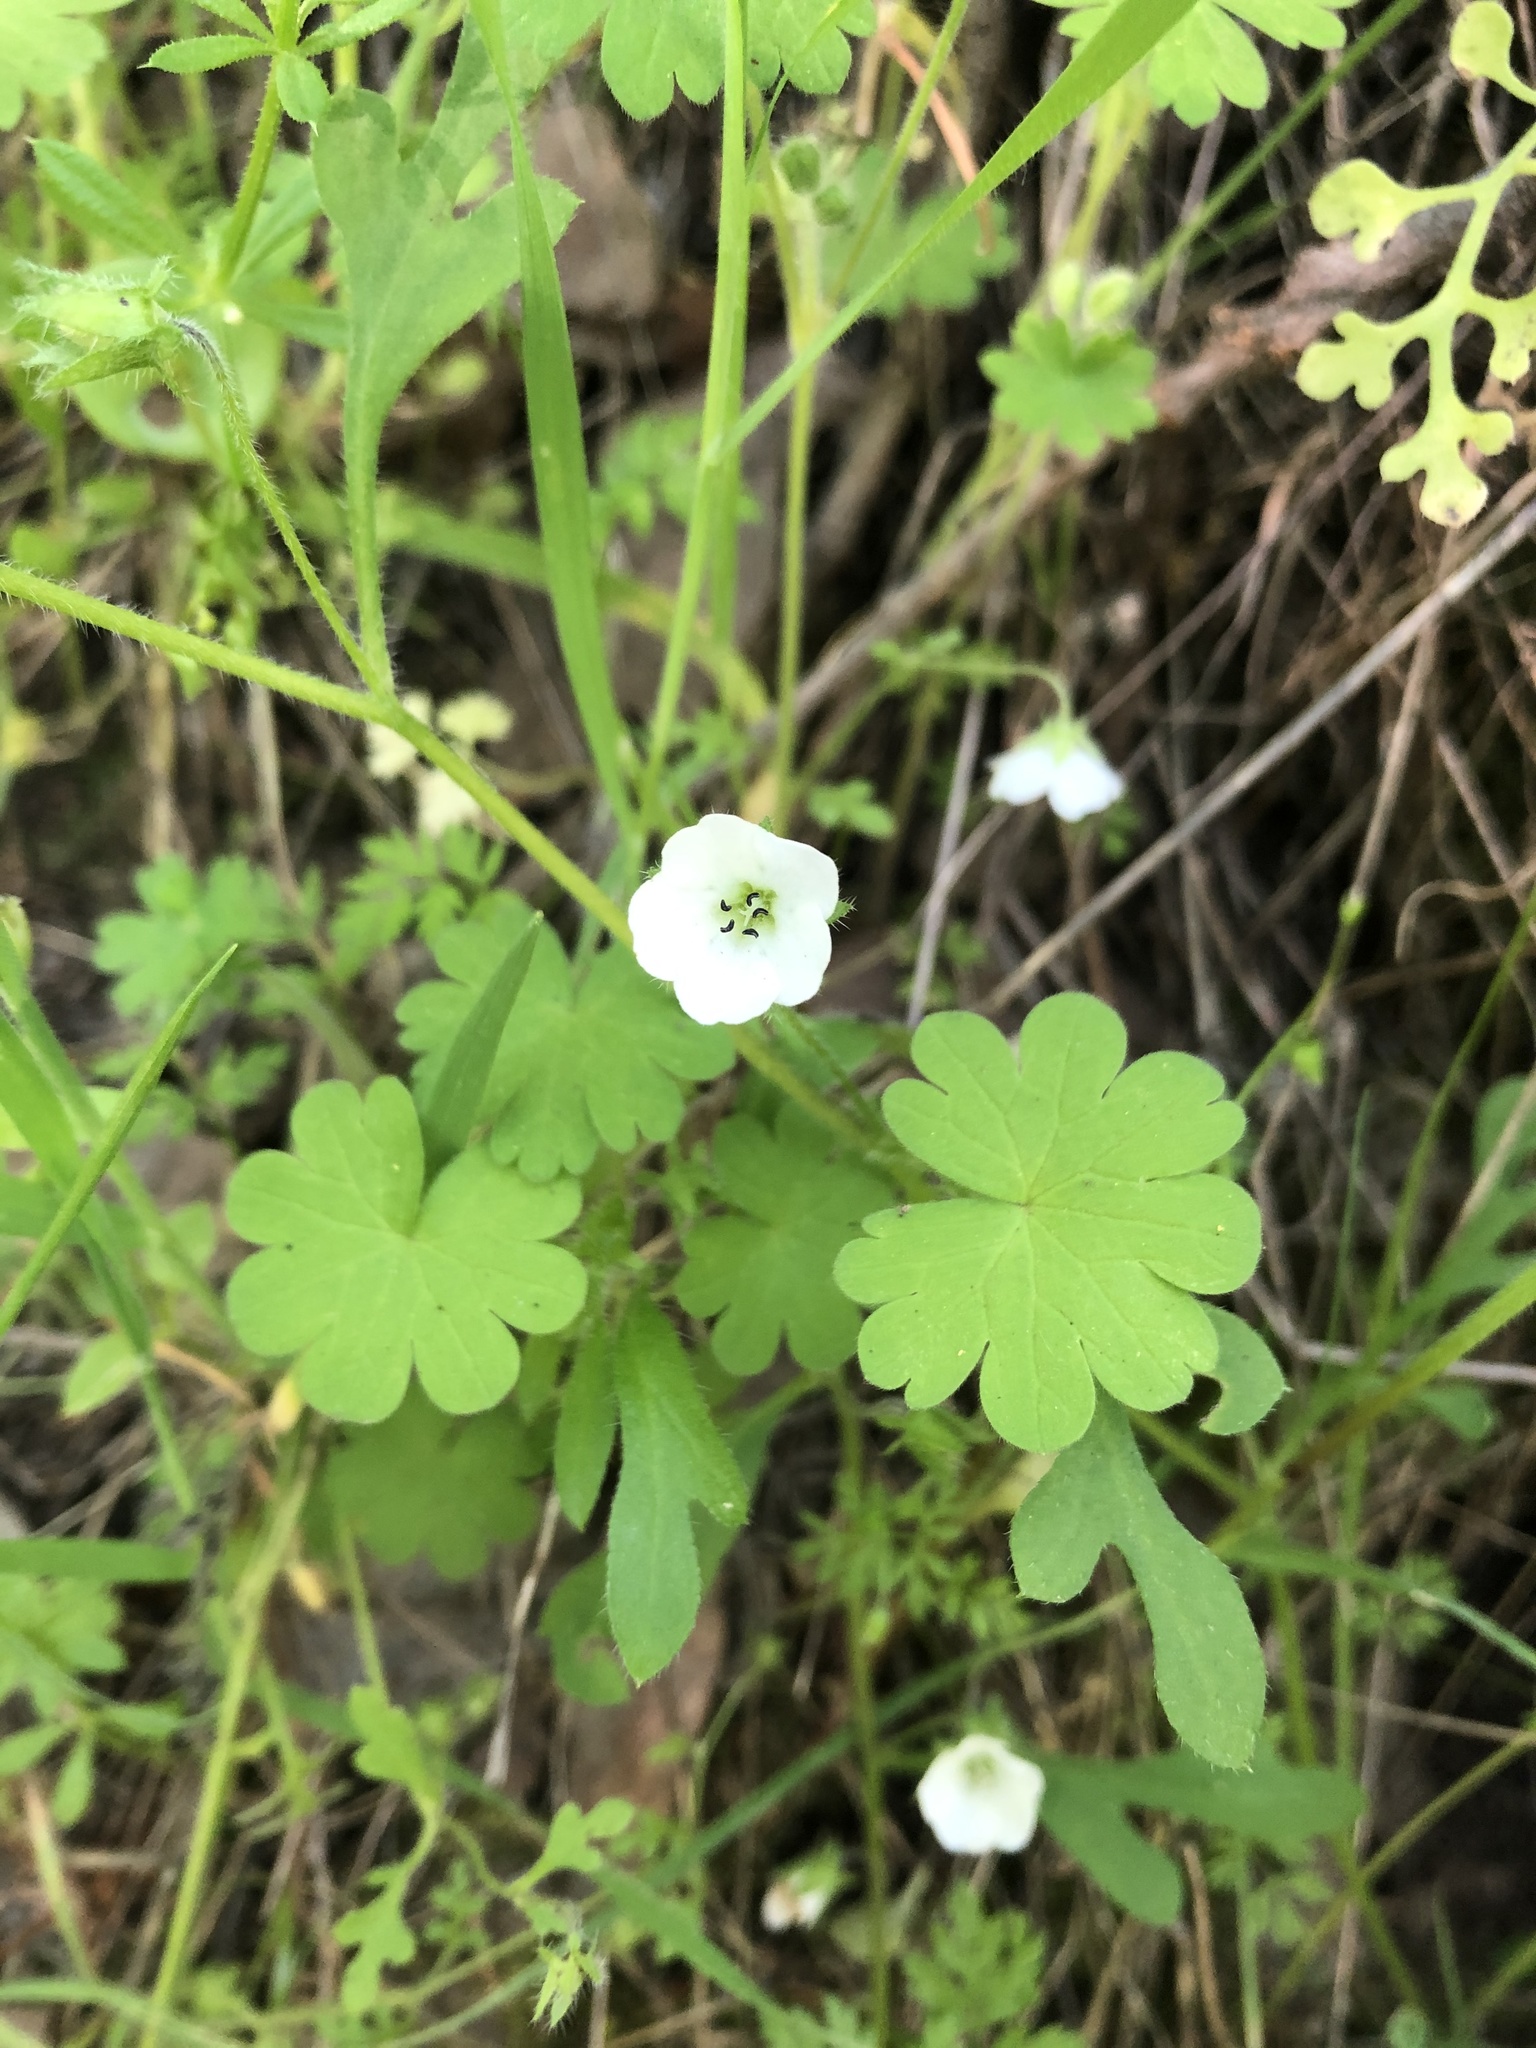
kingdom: Plantae
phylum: Tracheophyta
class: Magnoliopsida
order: Boraginales
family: Hydrophyllaceae
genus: Nemophila
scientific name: Nemophila heterophylla
